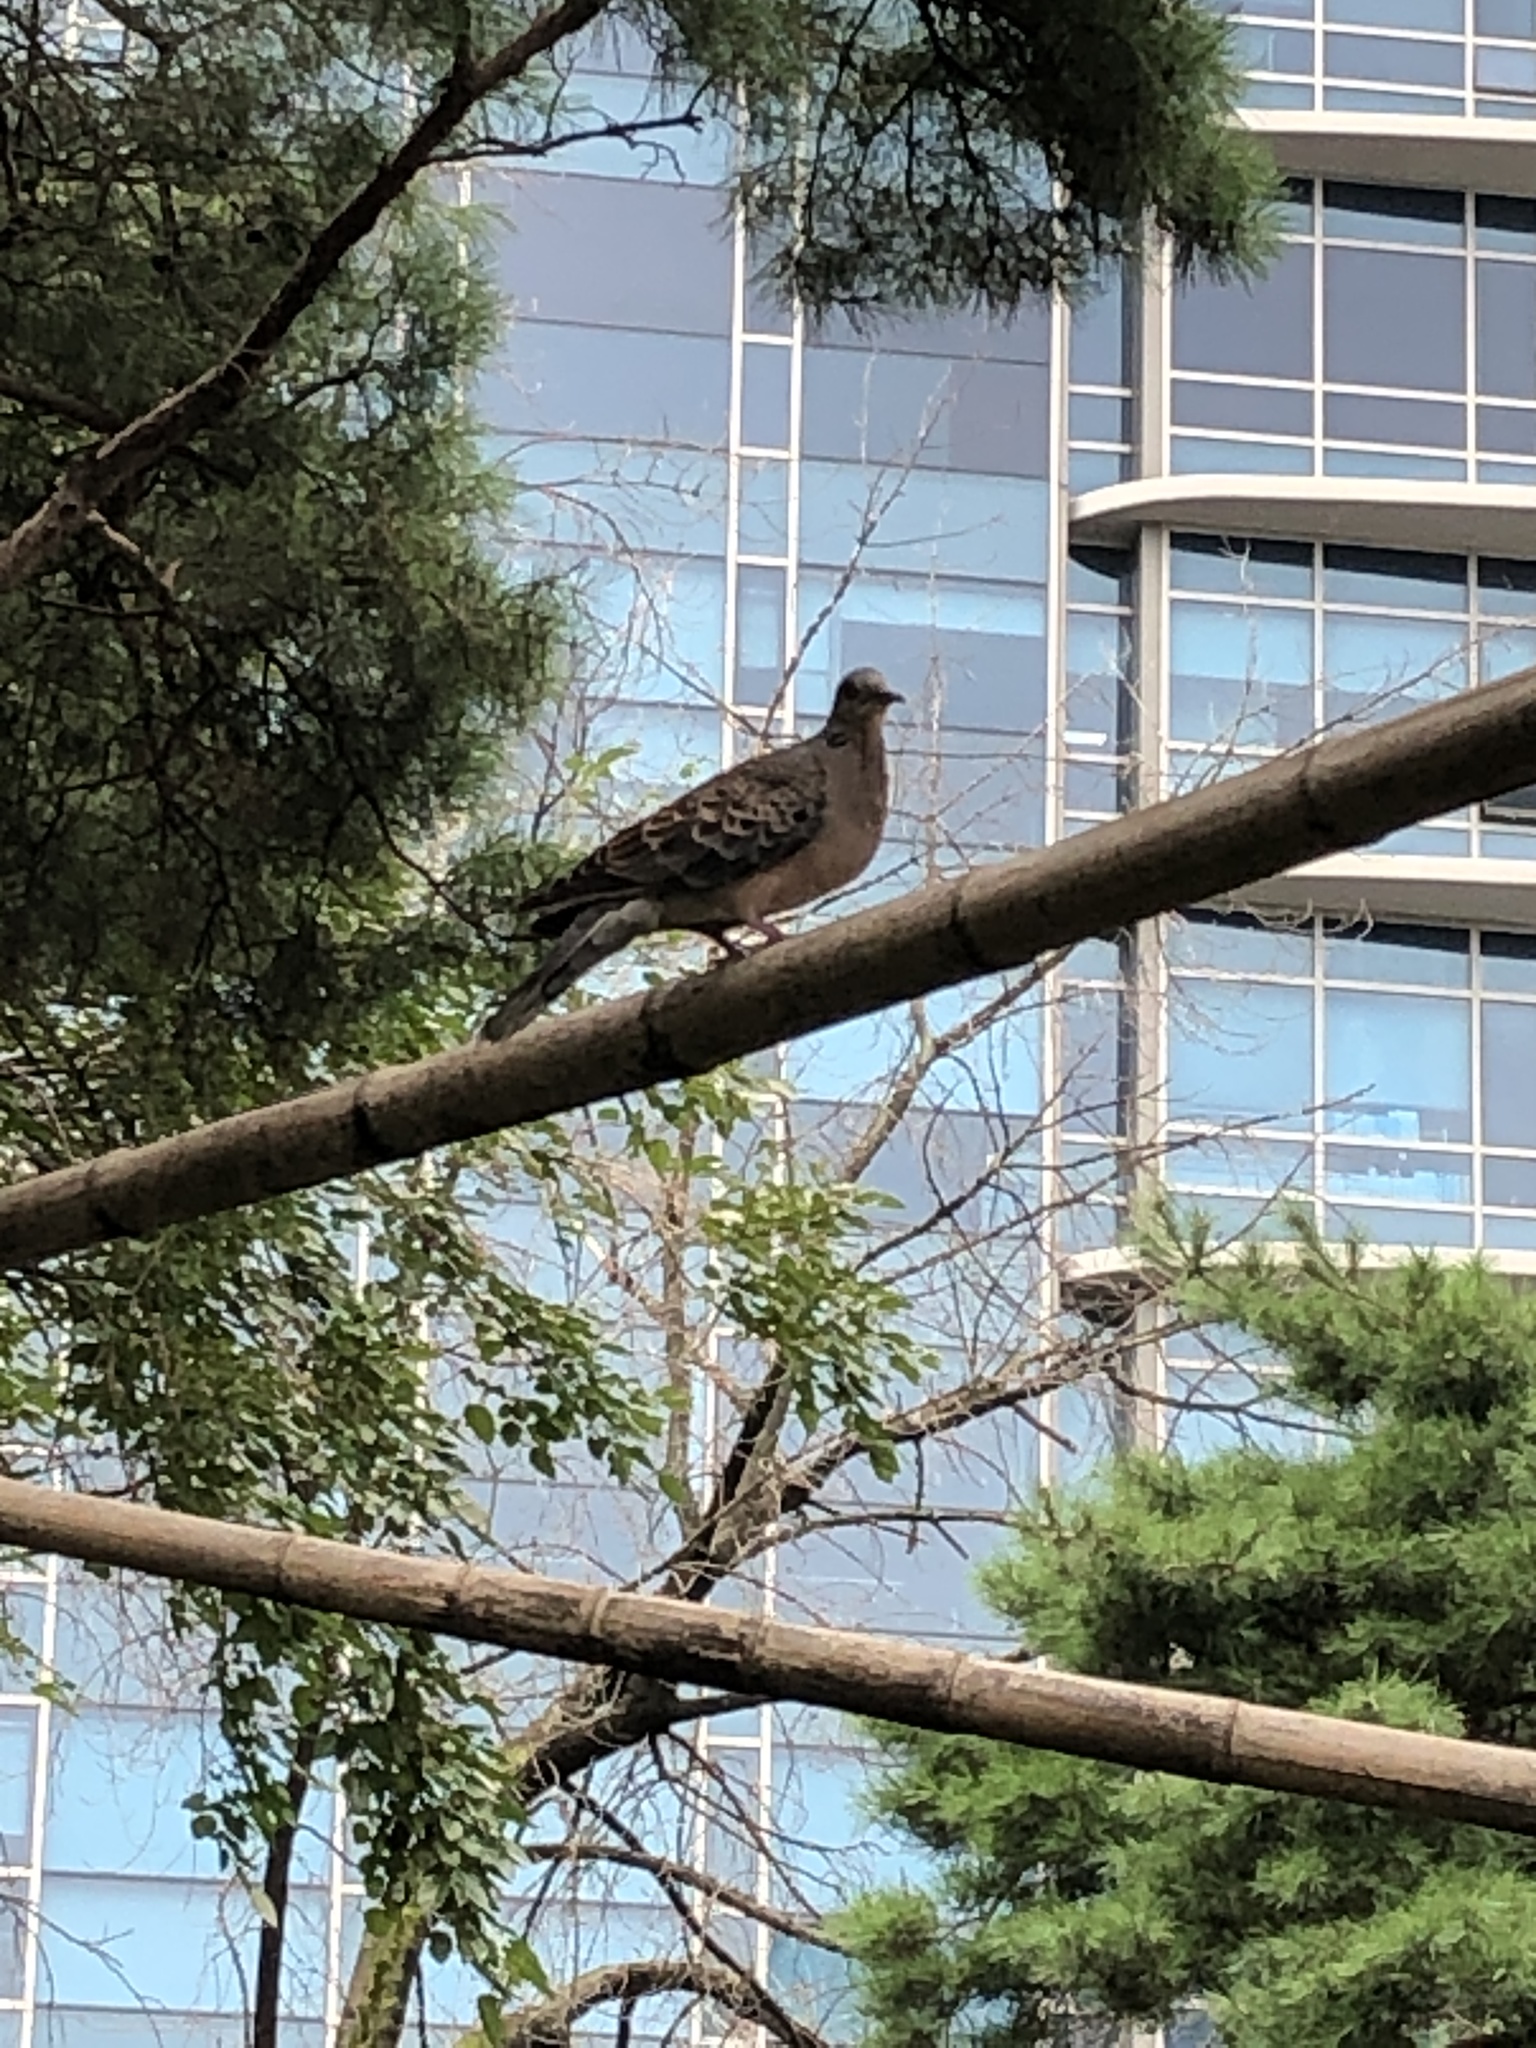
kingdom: Animalia
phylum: Chordata
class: Aves
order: Columbiformes
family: Columbidae
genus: Streptopelia
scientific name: Streptopelia orientalis
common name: Oriental turtle dove
